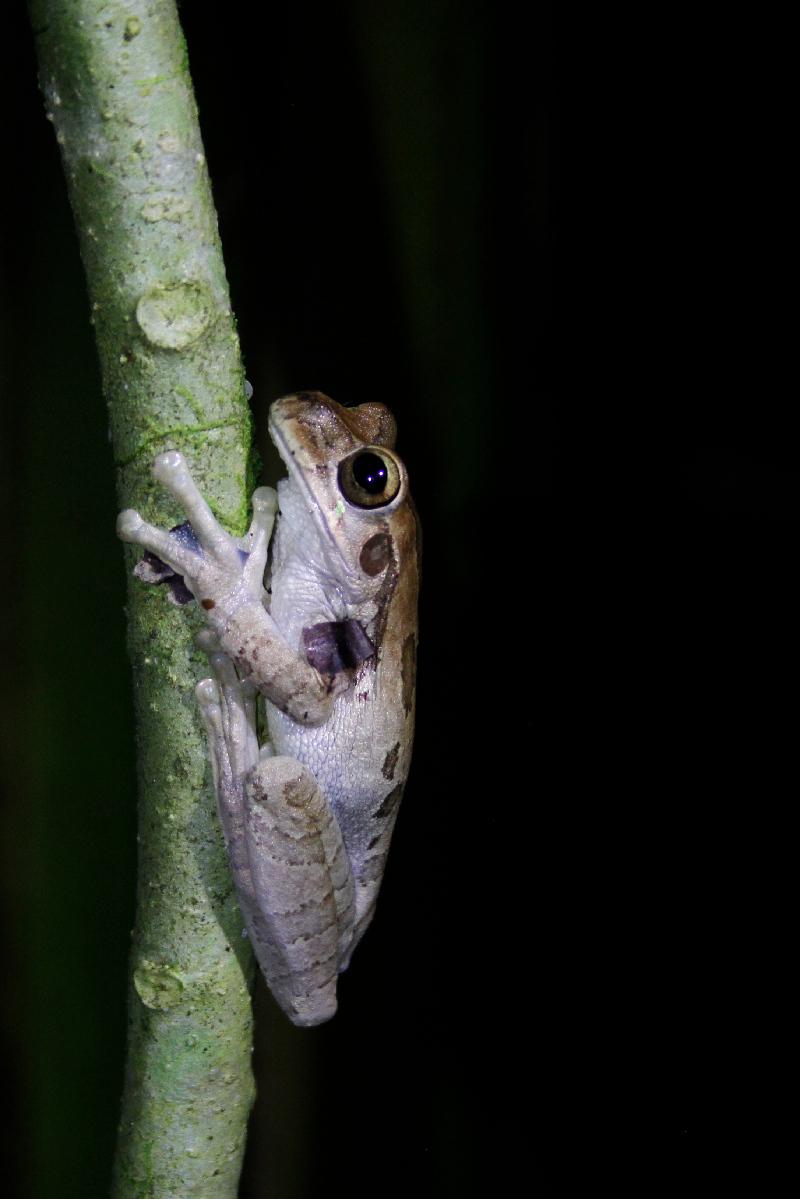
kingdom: Animalia
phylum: Chordata
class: Amphibia
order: Anura
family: Hylidae
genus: Smilisca
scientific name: Smilisca manisorum
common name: Masked tree frog
